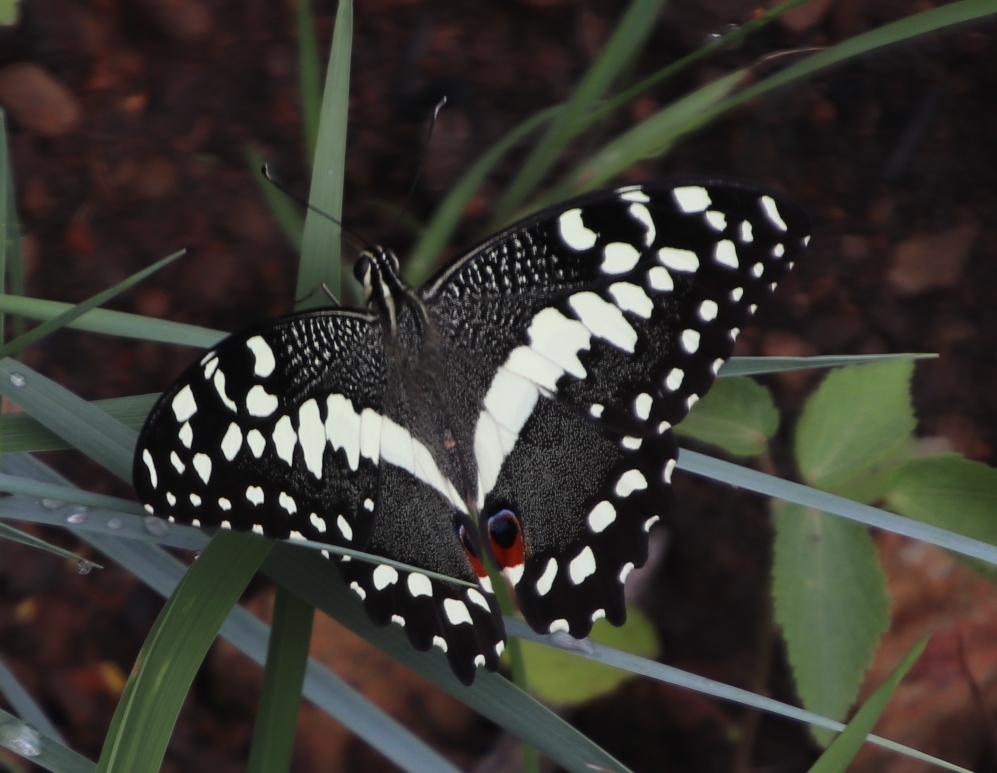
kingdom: Animalia
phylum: Arthropoda
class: Insecta
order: Lepidoptera
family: Papilionidae
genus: Papilio
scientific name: Papilio demodocus
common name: Christmas butterfly
